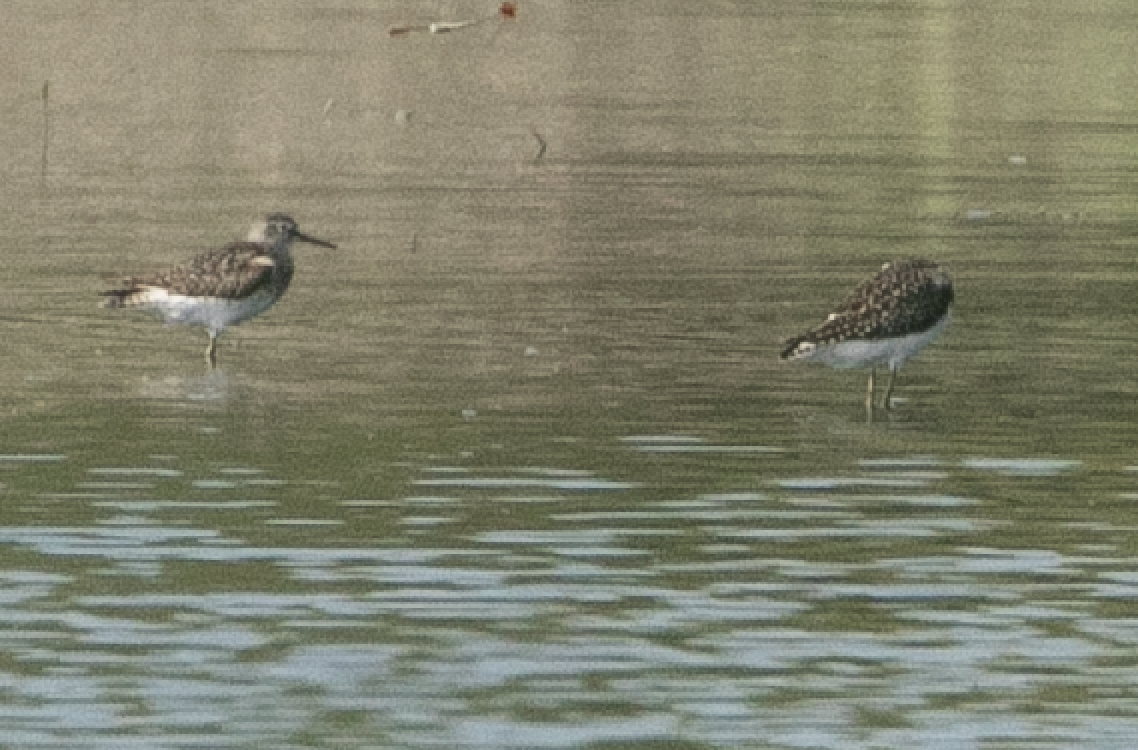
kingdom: Animalia
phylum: Chordata
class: Aves
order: Charadriiformes
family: Scolopacidae
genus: Tringa
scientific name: Tringa glareola
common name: Wood sandpiper
